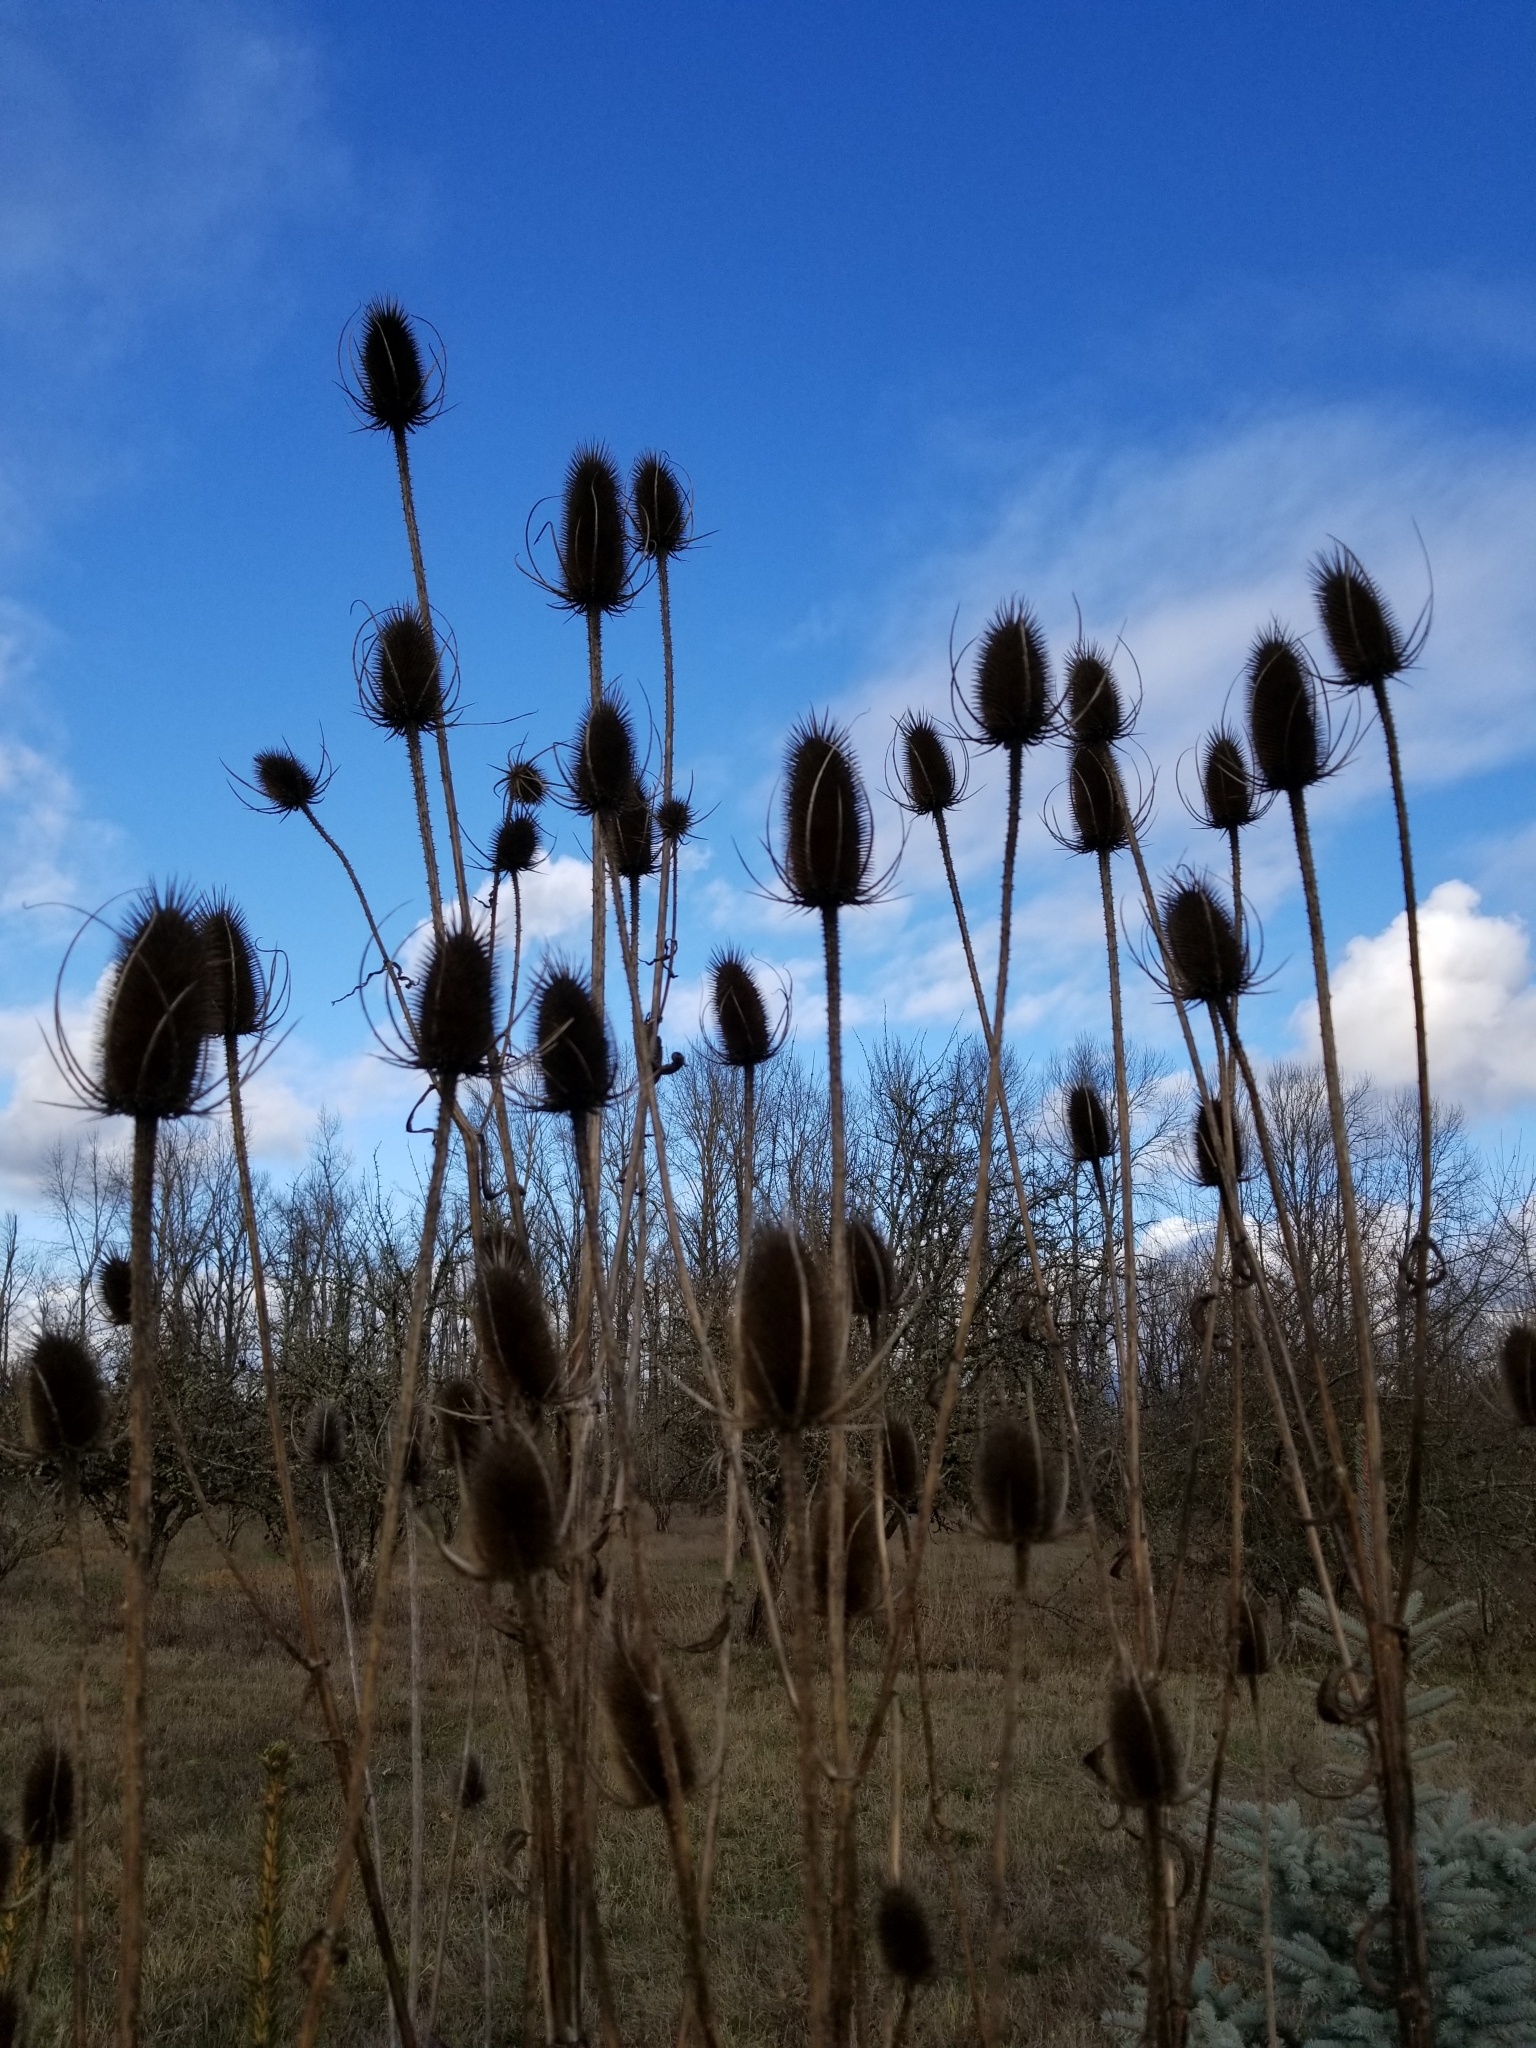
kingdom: Plantae
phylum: Tracheophyta
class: Magnoliopsida
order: Dipsacales
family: Caprifoliaceae
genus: Dipsacus
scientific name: Dipsacus fullonum
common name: Teasel
